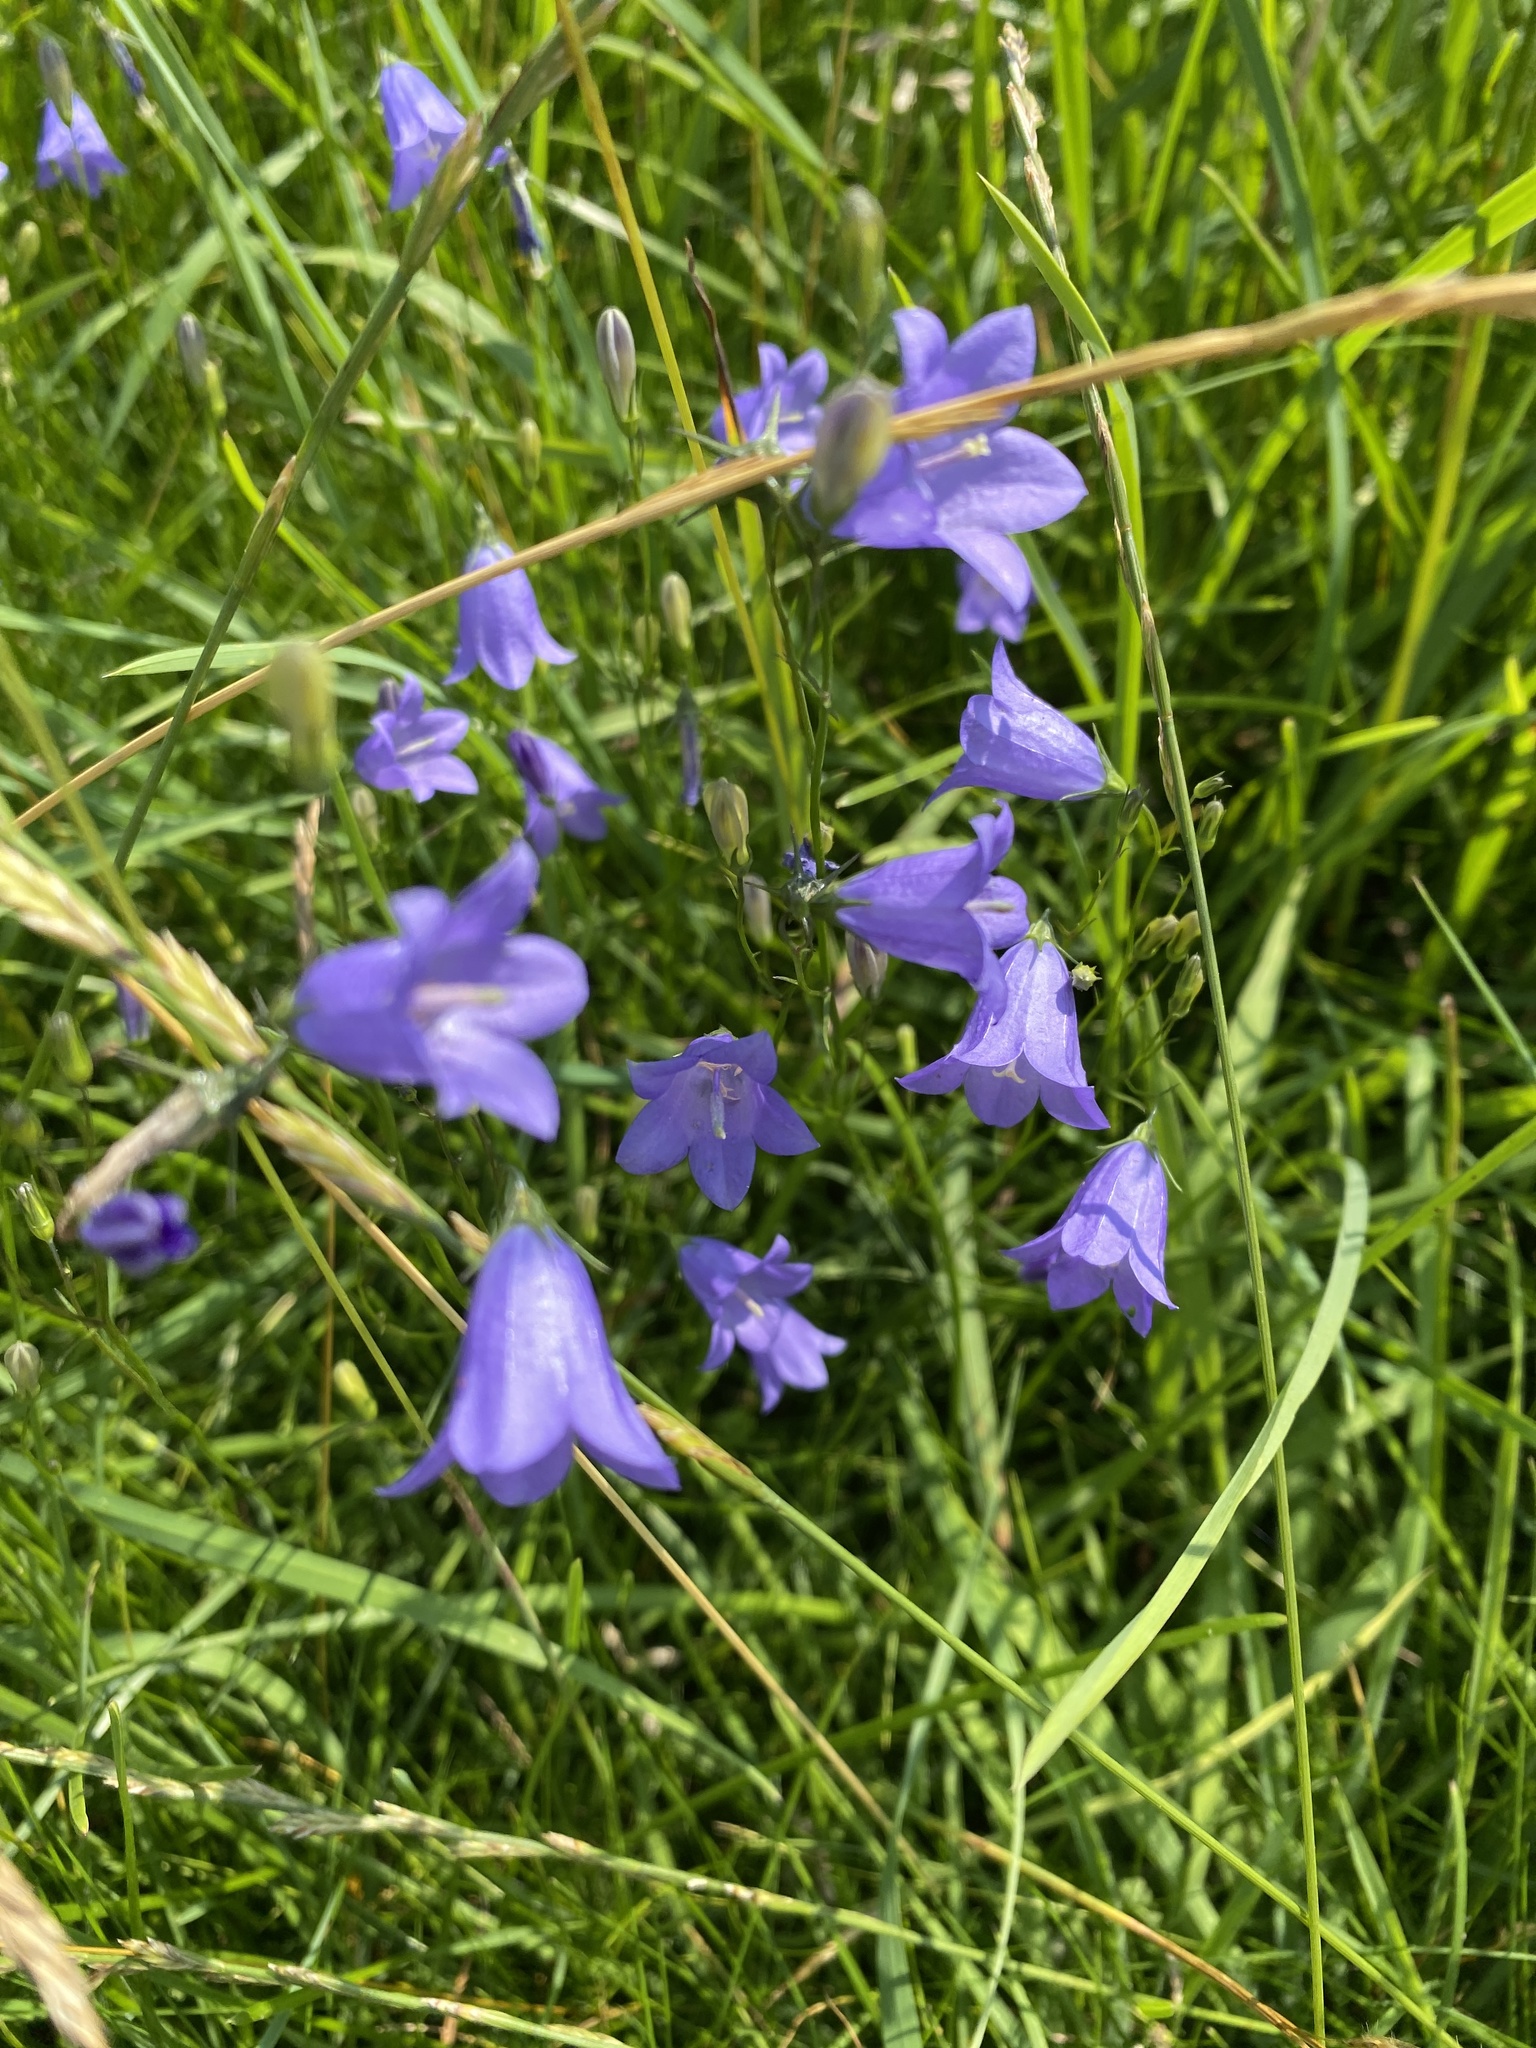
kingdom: Plantae
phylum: Tracheophyta
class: Magnoliopsida
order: Asterales
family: Campanulaceae
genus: Campanula
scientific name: Campanula rotundifolia
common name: Harebell
